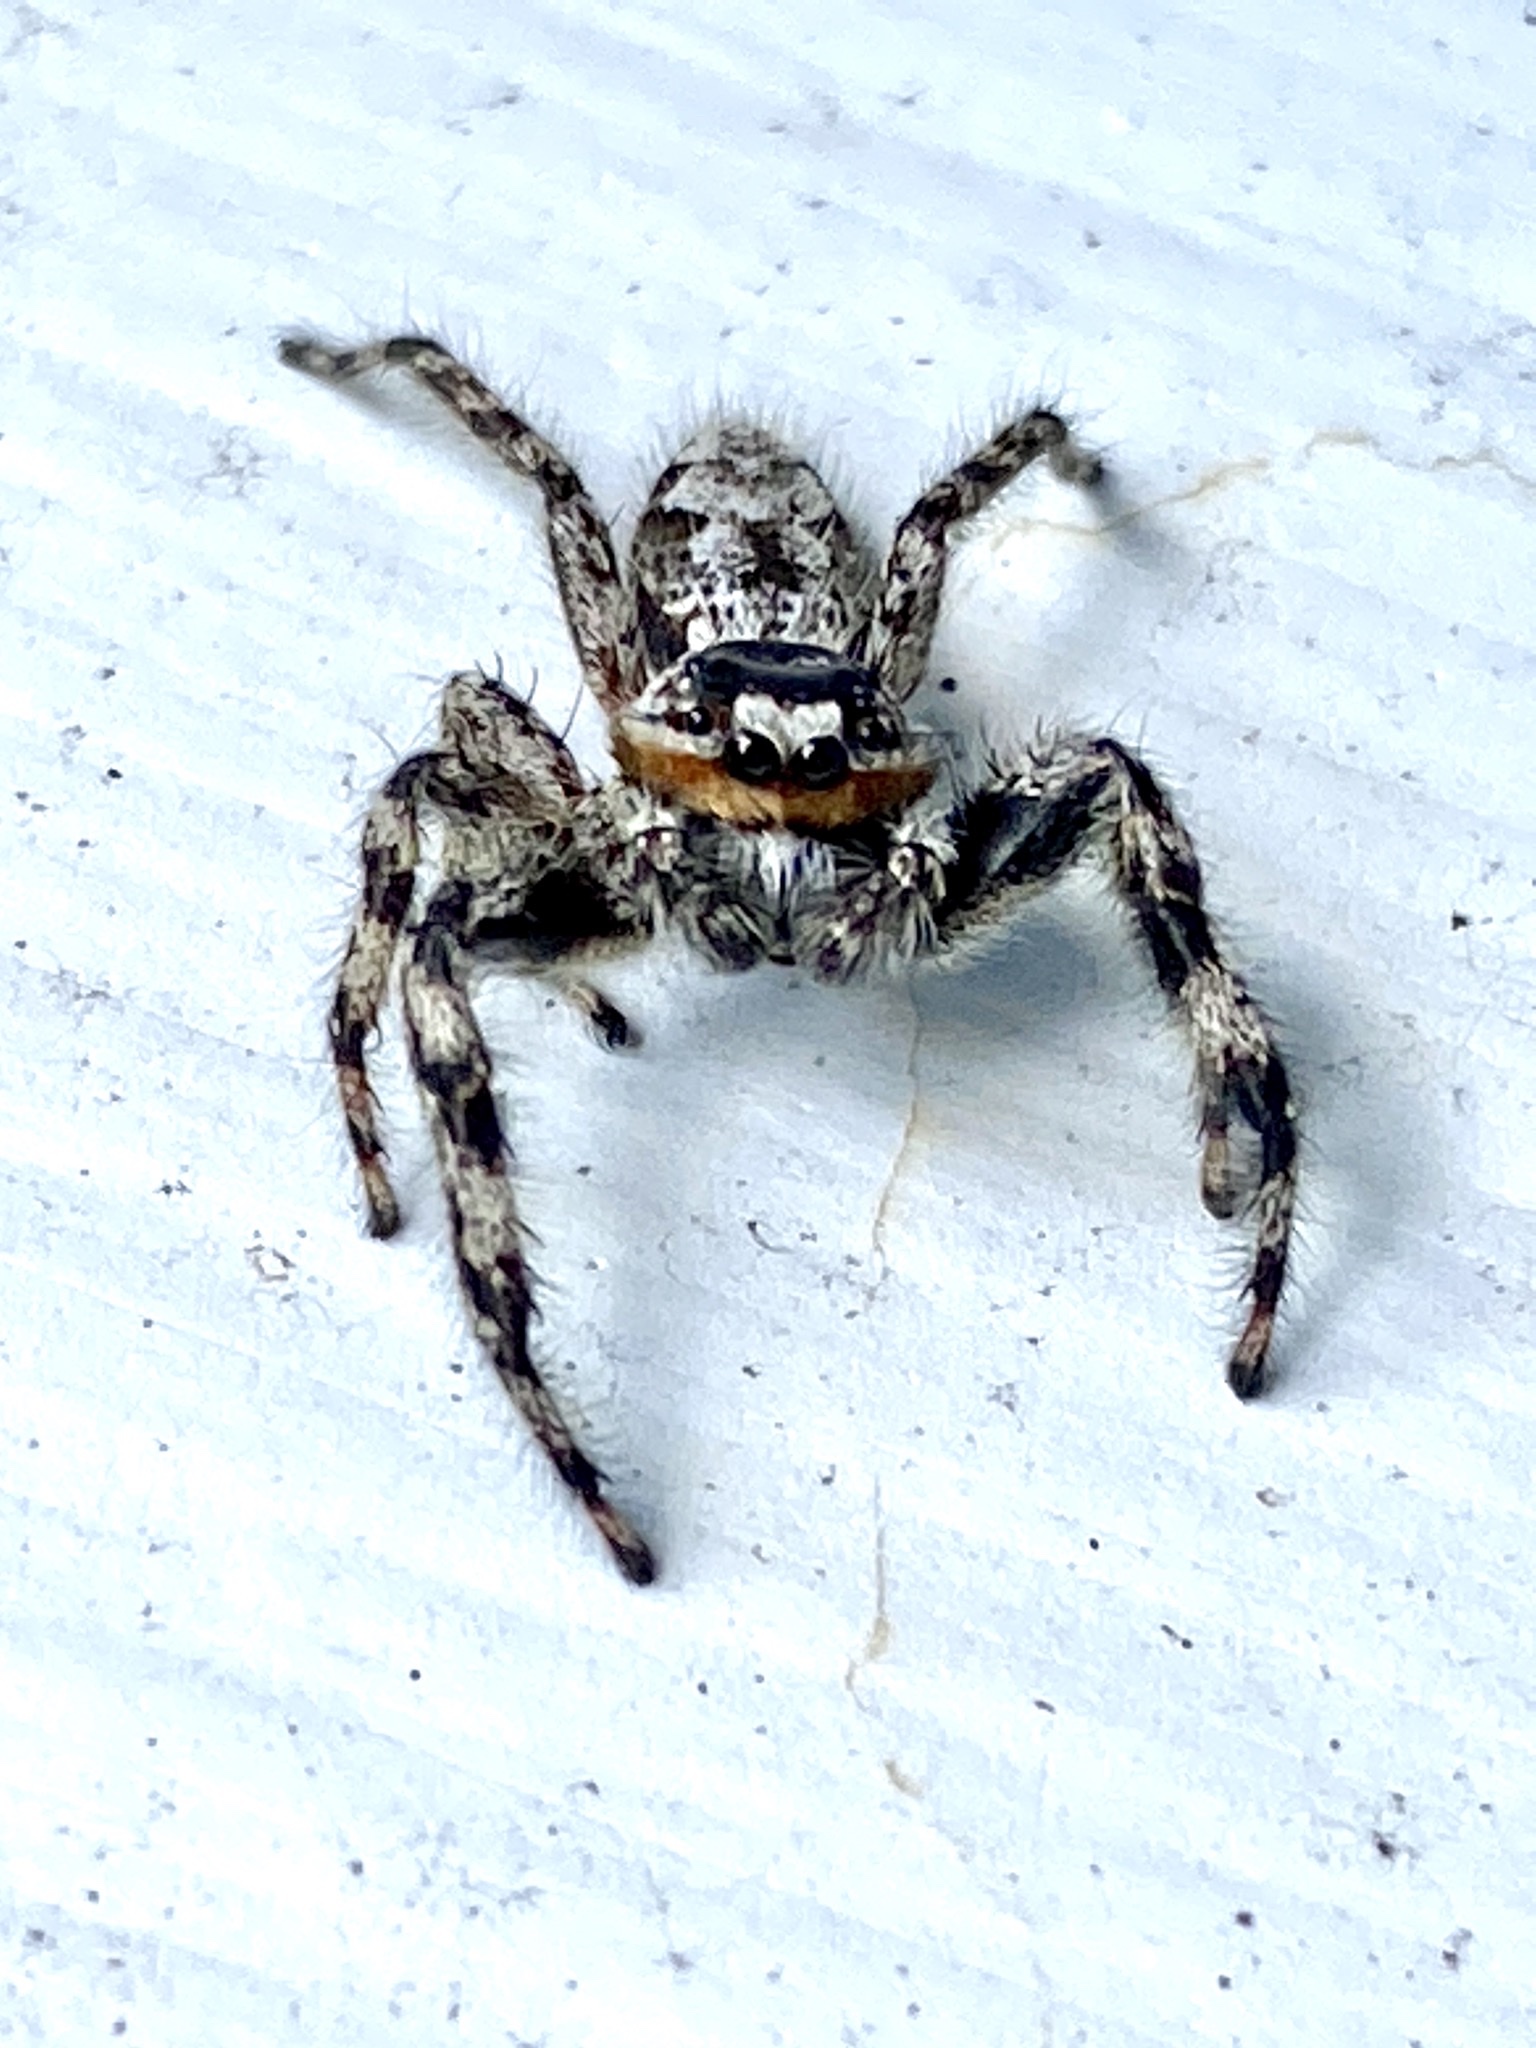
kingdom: Animalia
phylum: Arthropoda
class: Arachnida
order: Araneae
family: Salticidae
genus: Platycryptus
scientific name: Platycryptus undatus
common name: Tan jumping spider
